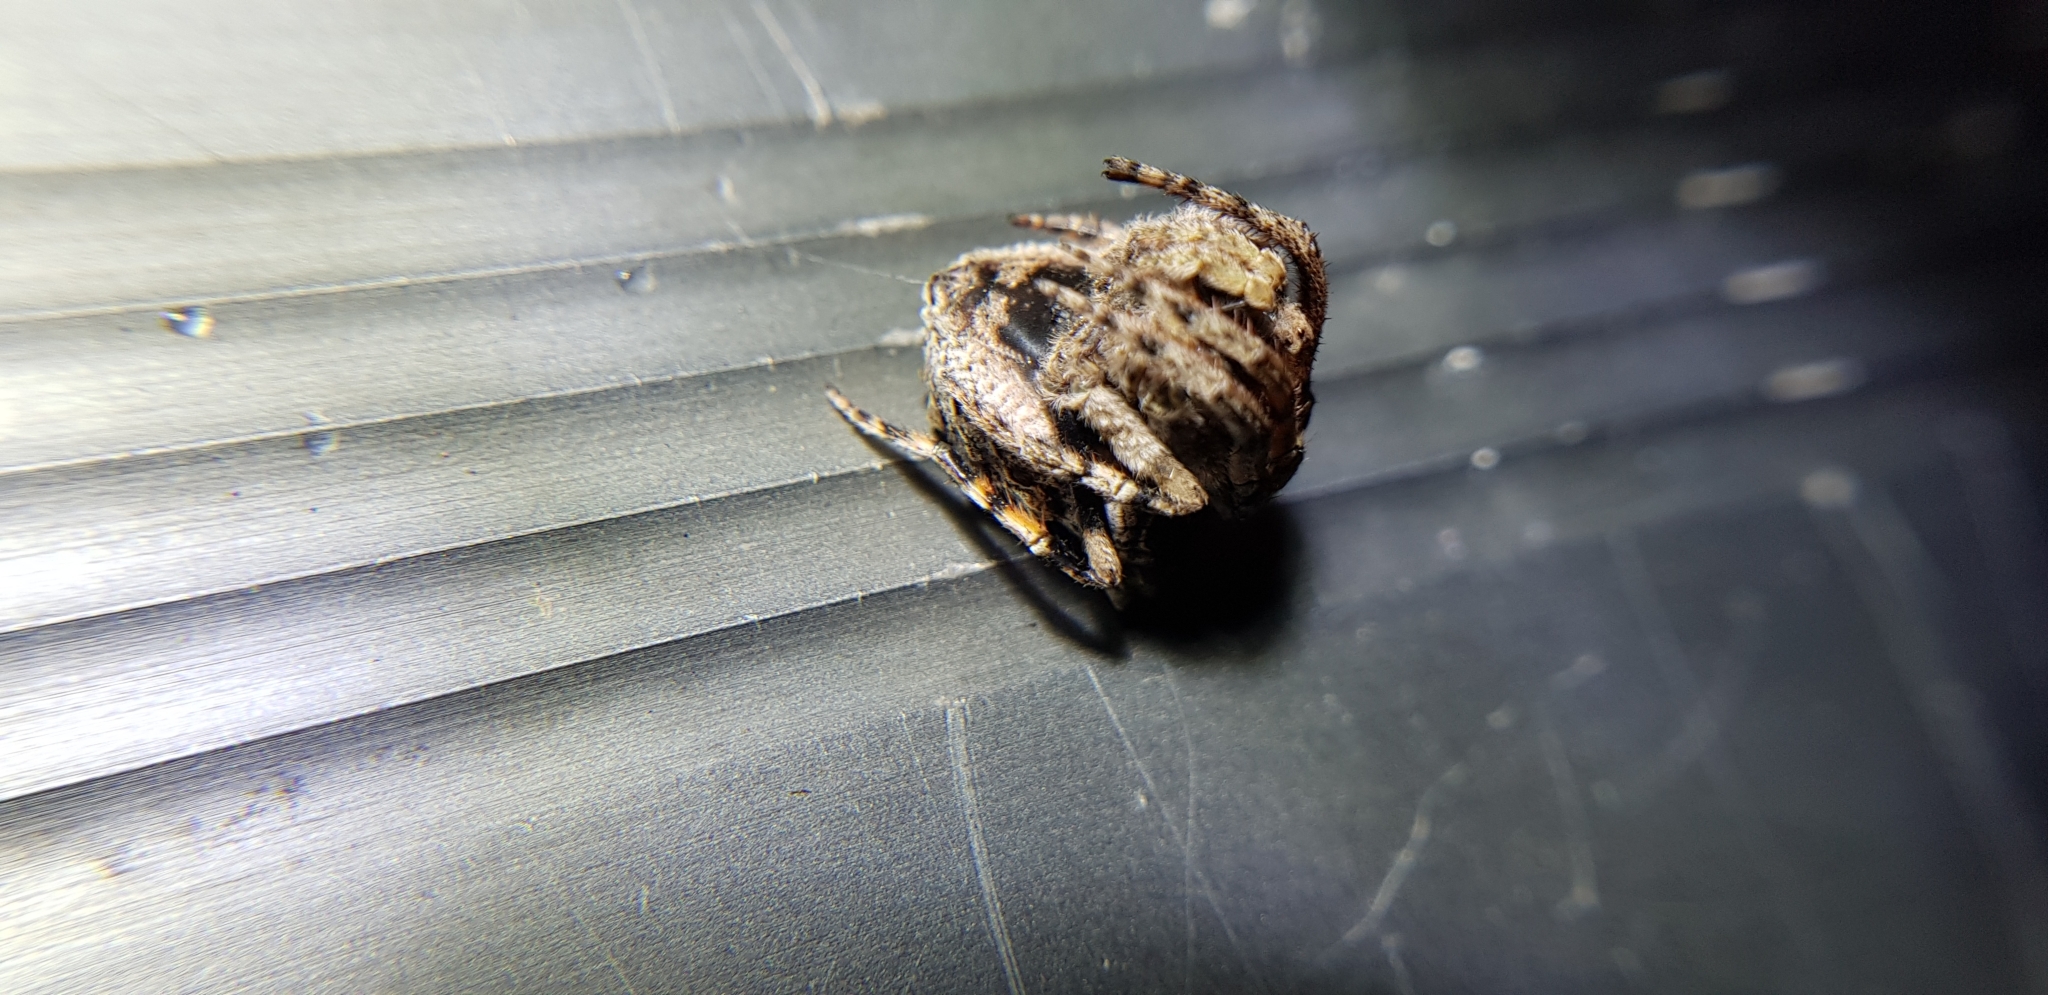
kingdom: Animalia
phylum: Arthropoda
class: Arachnida
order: Araneae
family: Araneidae
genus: Poltys
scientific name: Poltys illepidus
